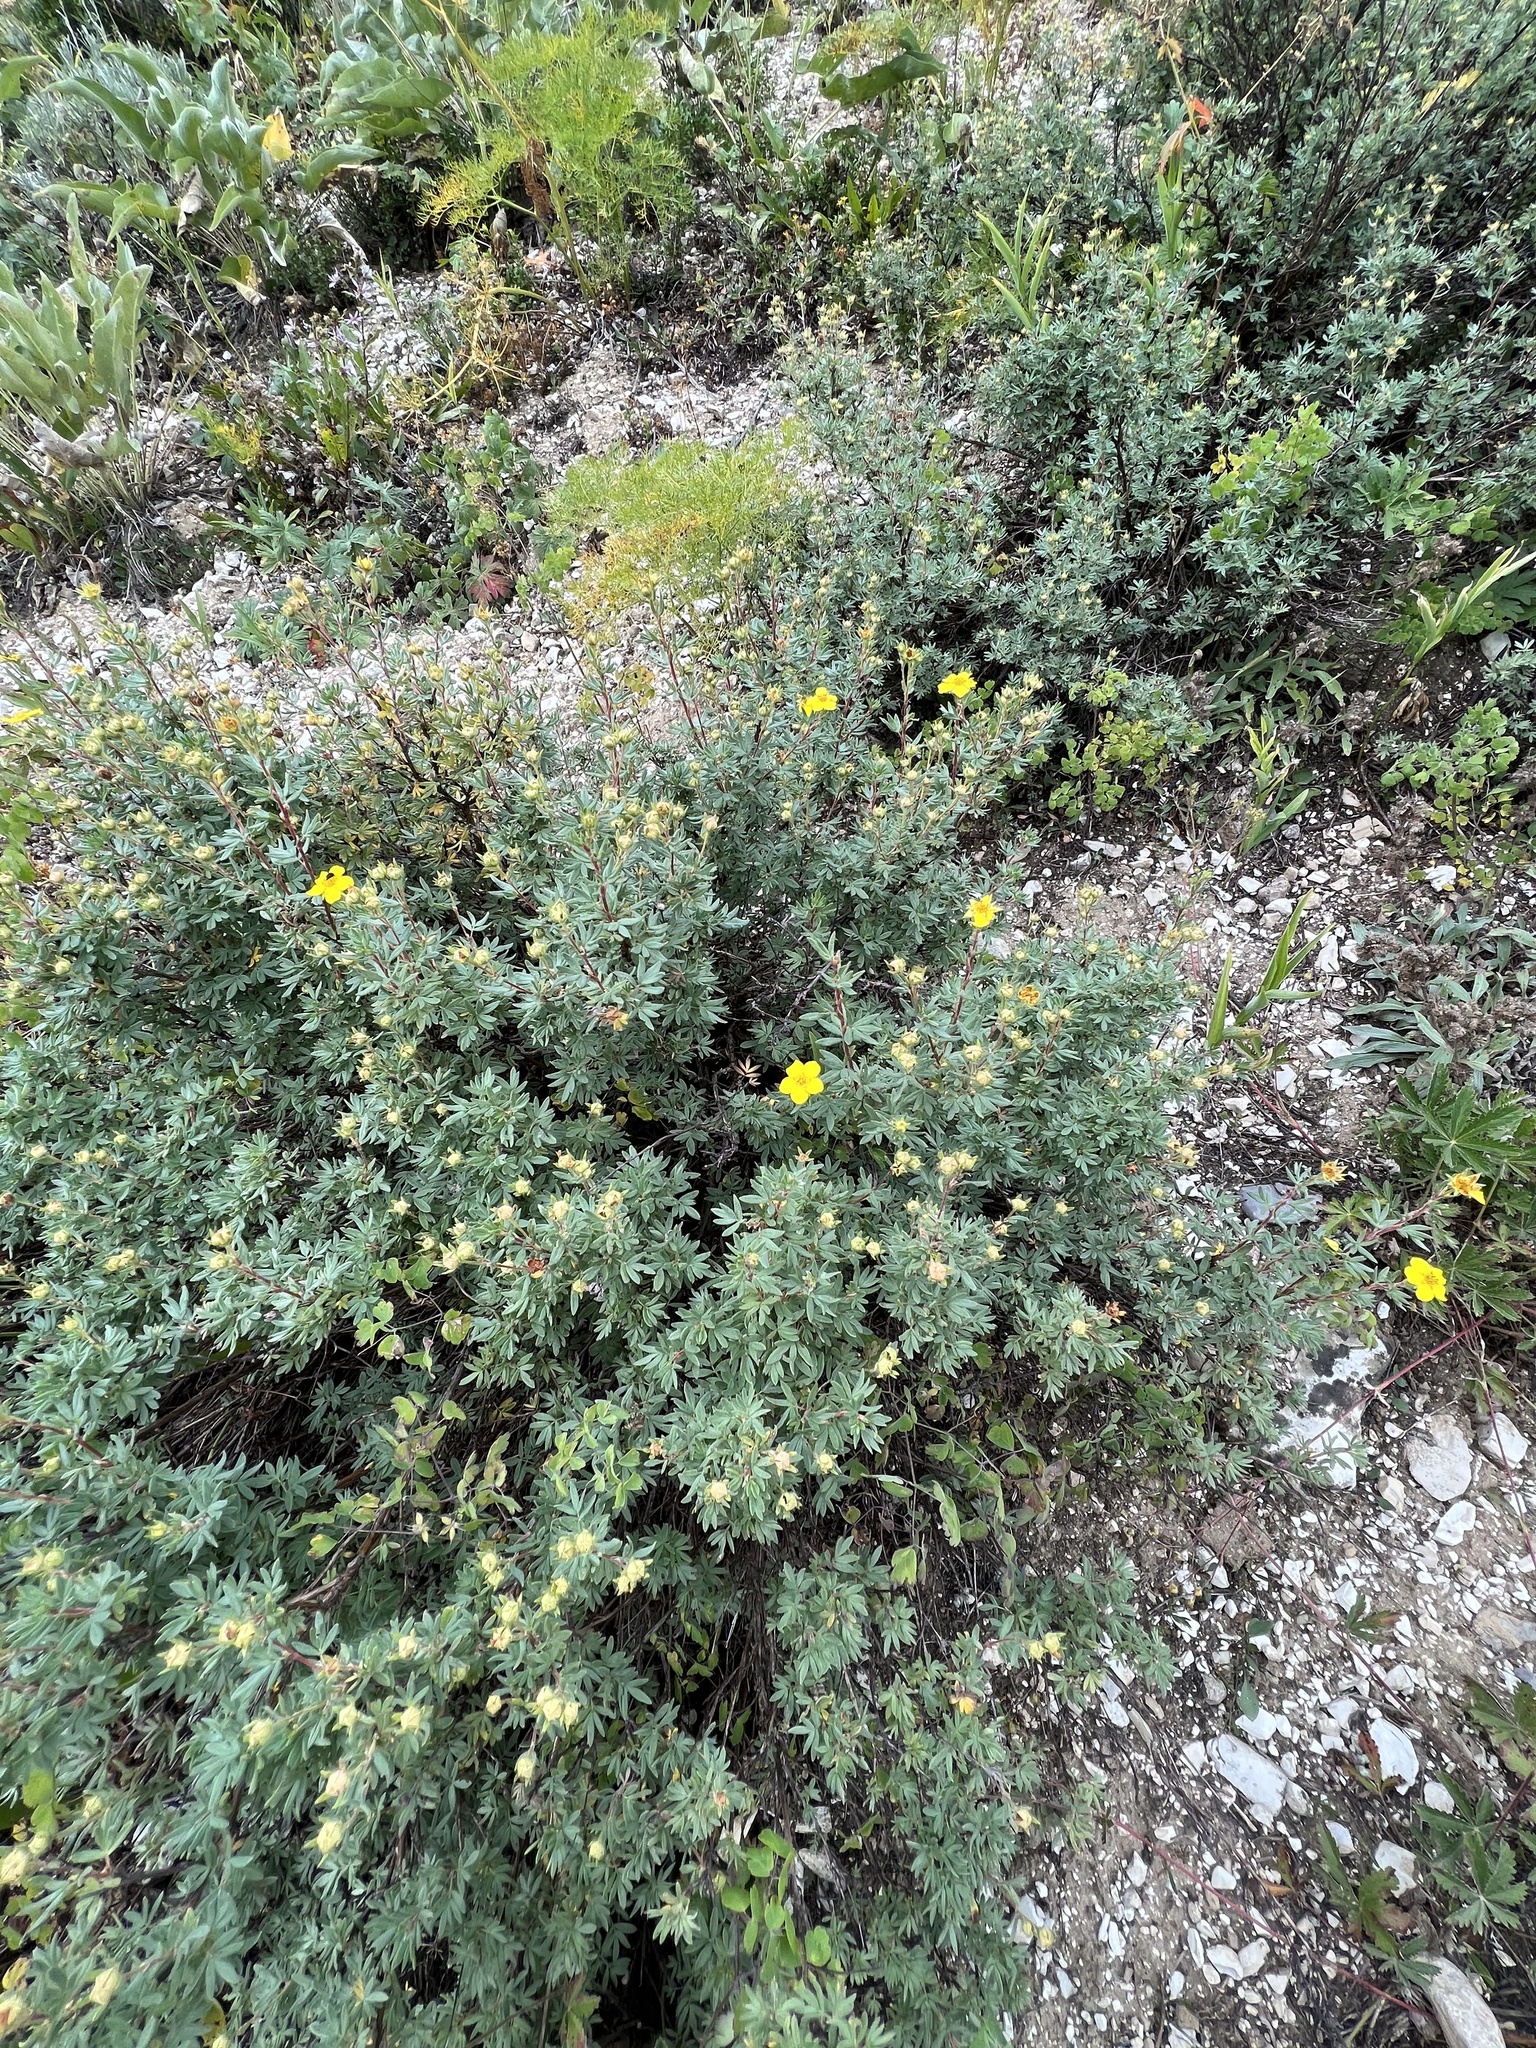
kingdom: Plantae
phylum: Tracheophyta
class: Magnoliopsida
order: Rosales
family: Rosaceae
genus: Dasiphora
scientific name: Dasiphora fruticosa
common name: Shrubby cinquefoil
